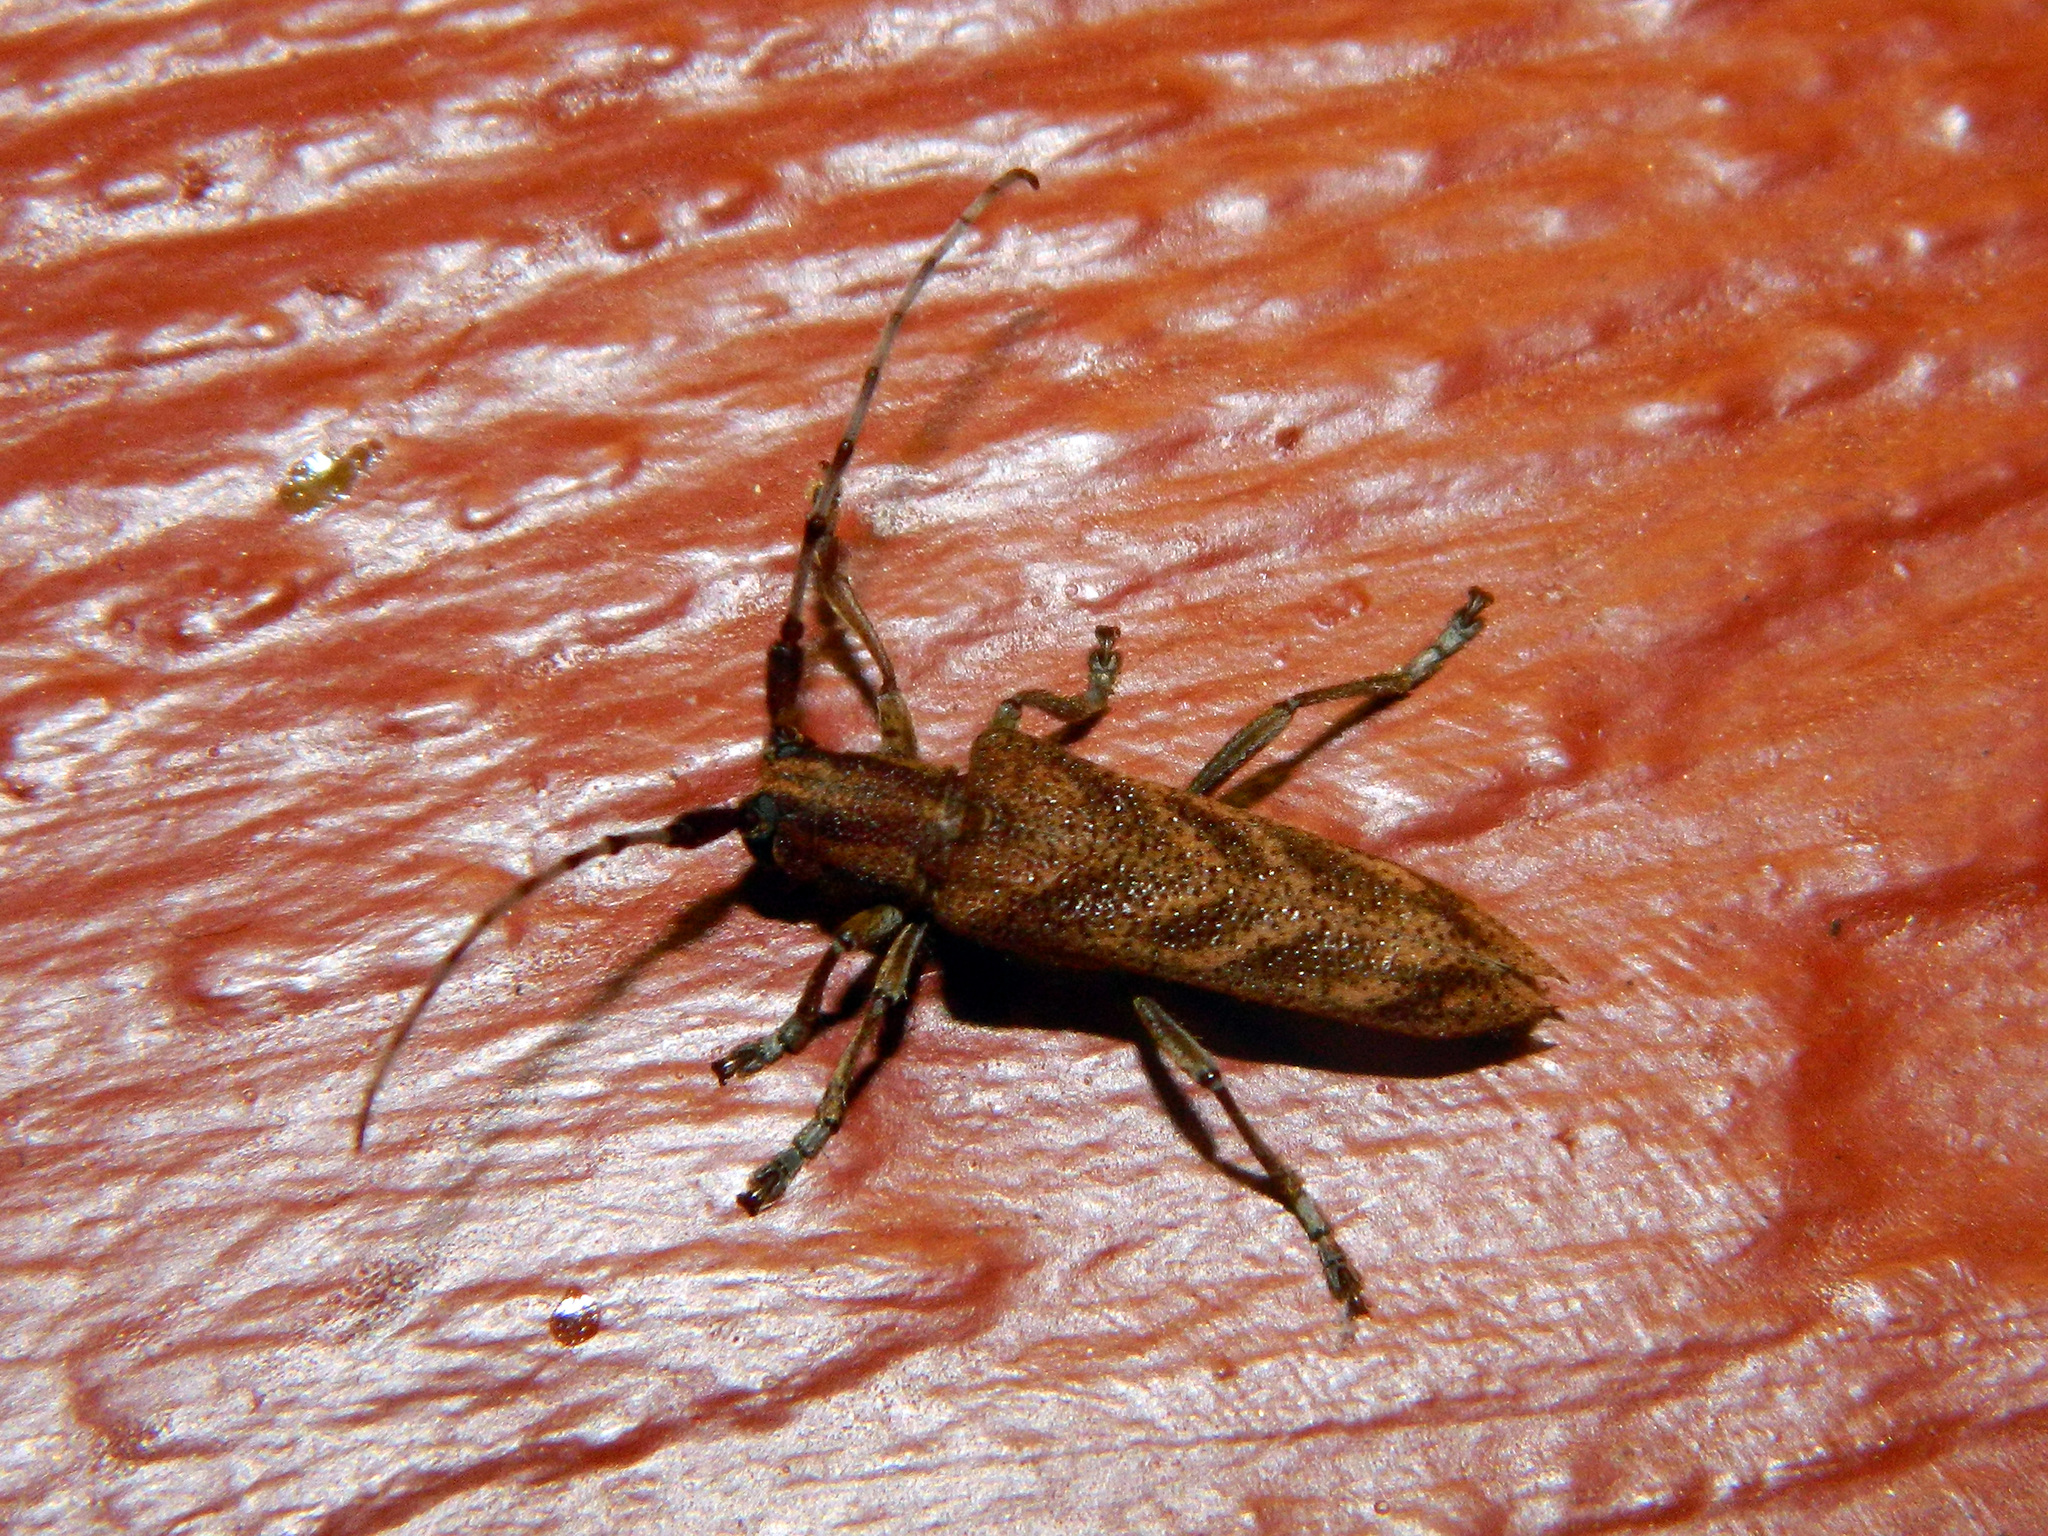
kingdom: Animalia
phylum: Arthropoda
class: Insecta
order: Coleoptera
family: Cerambycidae
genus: Saperda
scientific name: Saperda obliqua
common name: Alder borer
